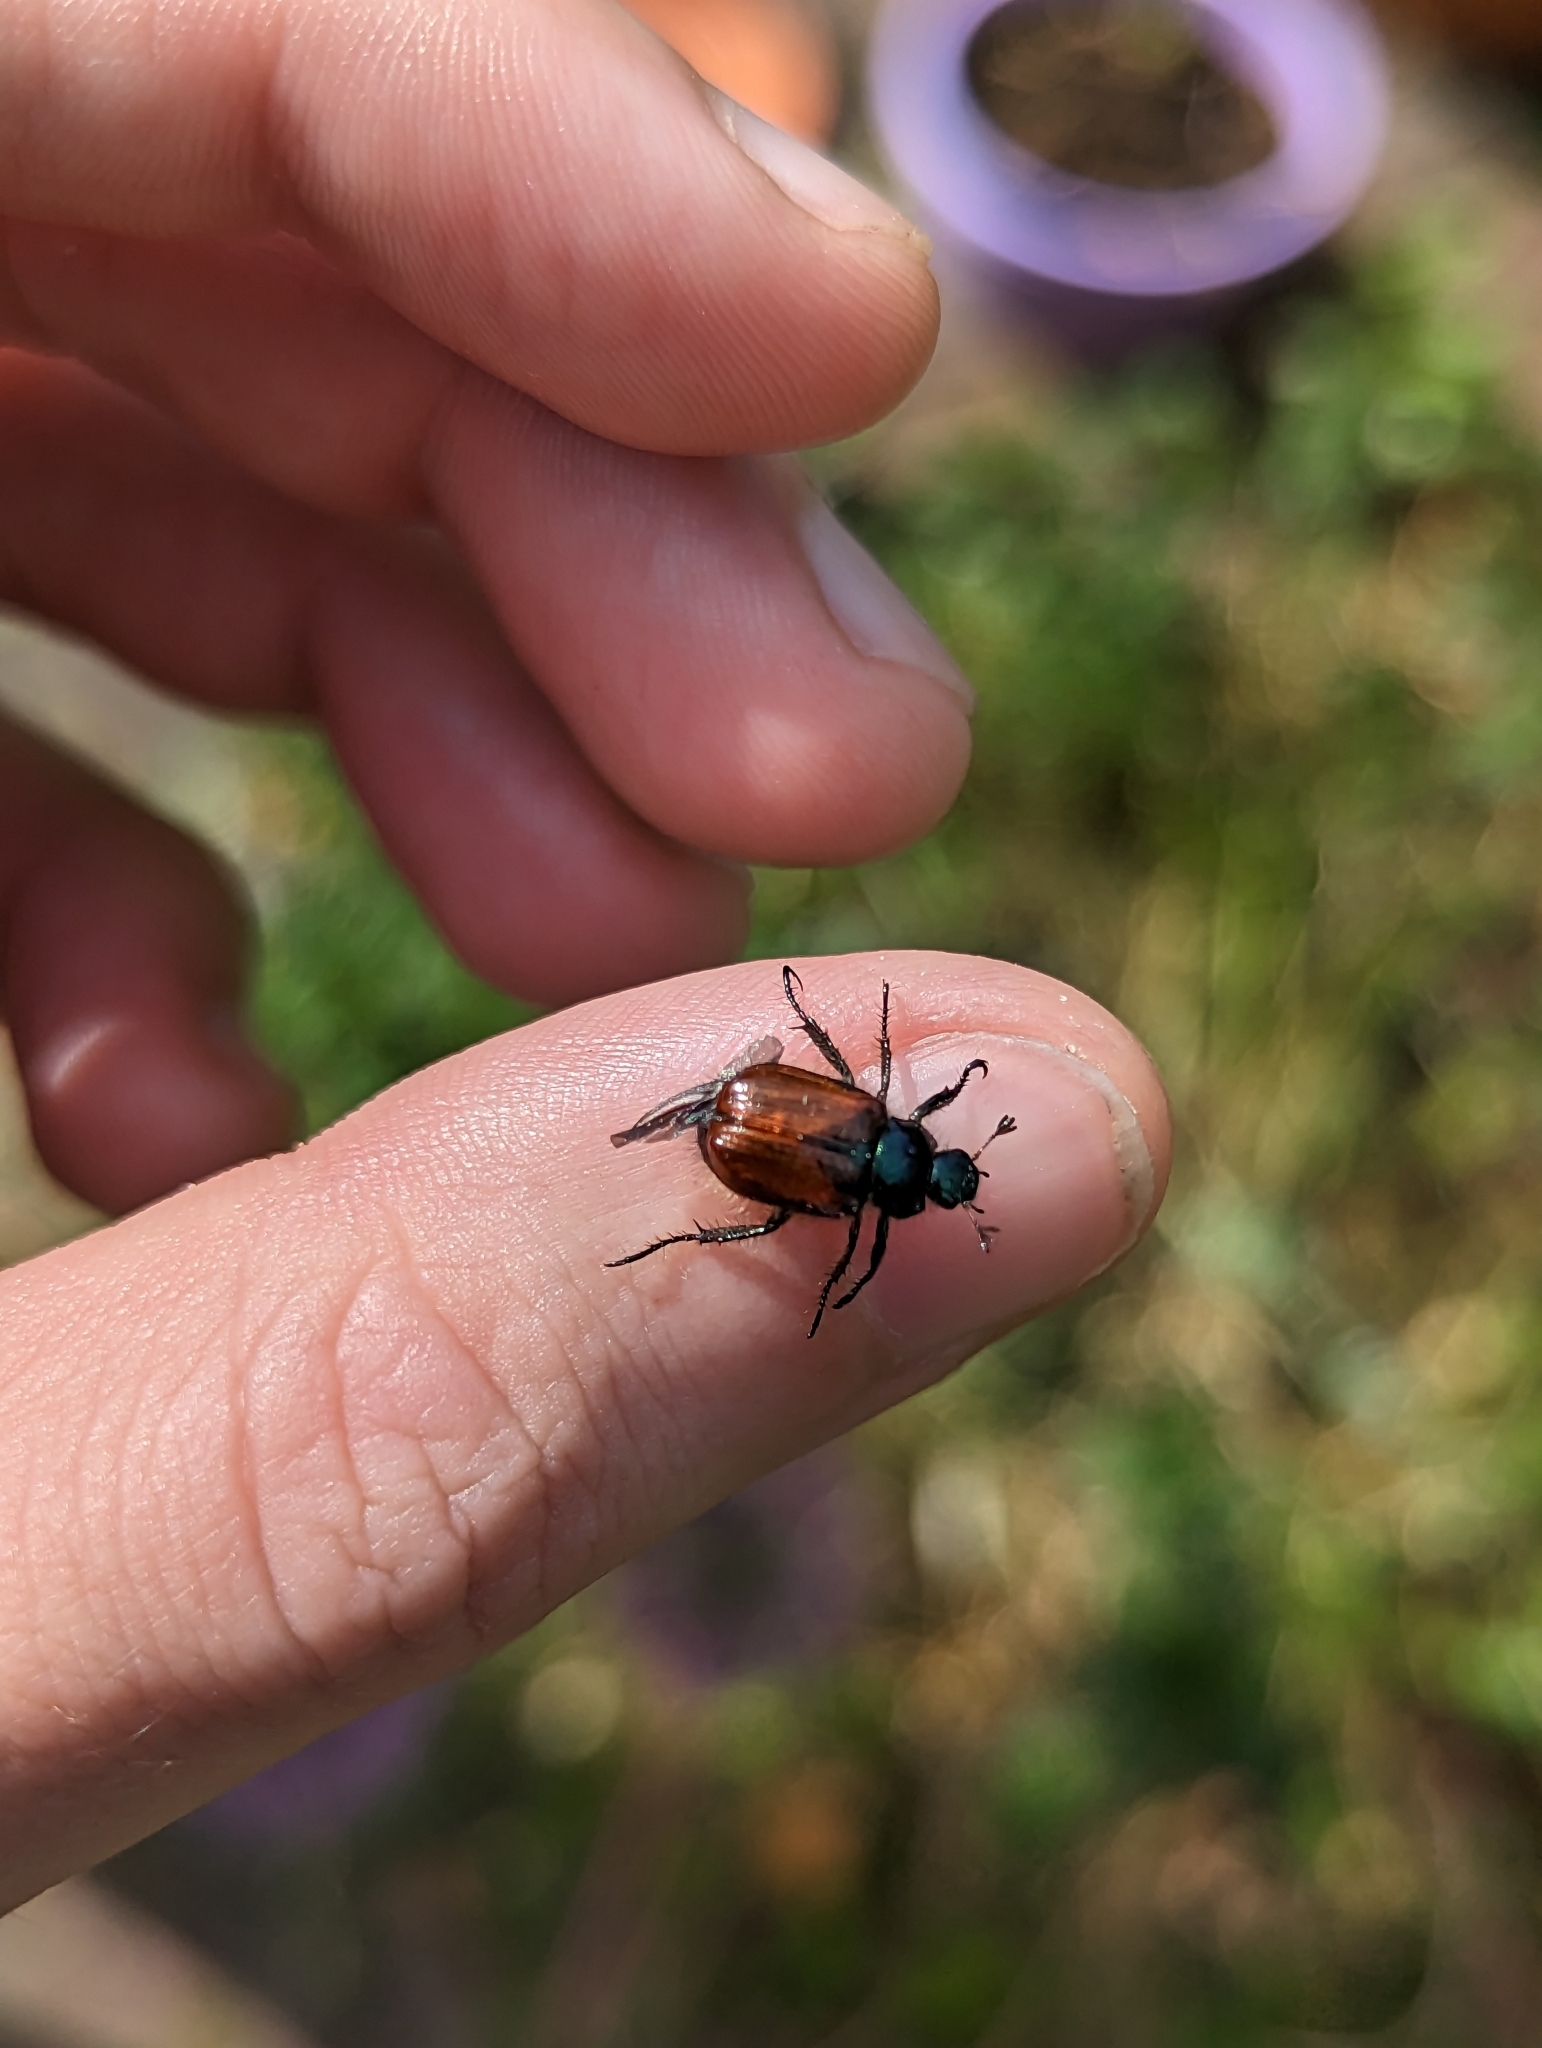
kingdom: Animalia
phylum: Arthropoda
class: Insecta
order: Coleoptera
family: Scarabaeidae
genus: Phyllopertha
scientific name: Phyllopertha horticola
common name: Garden chafer
